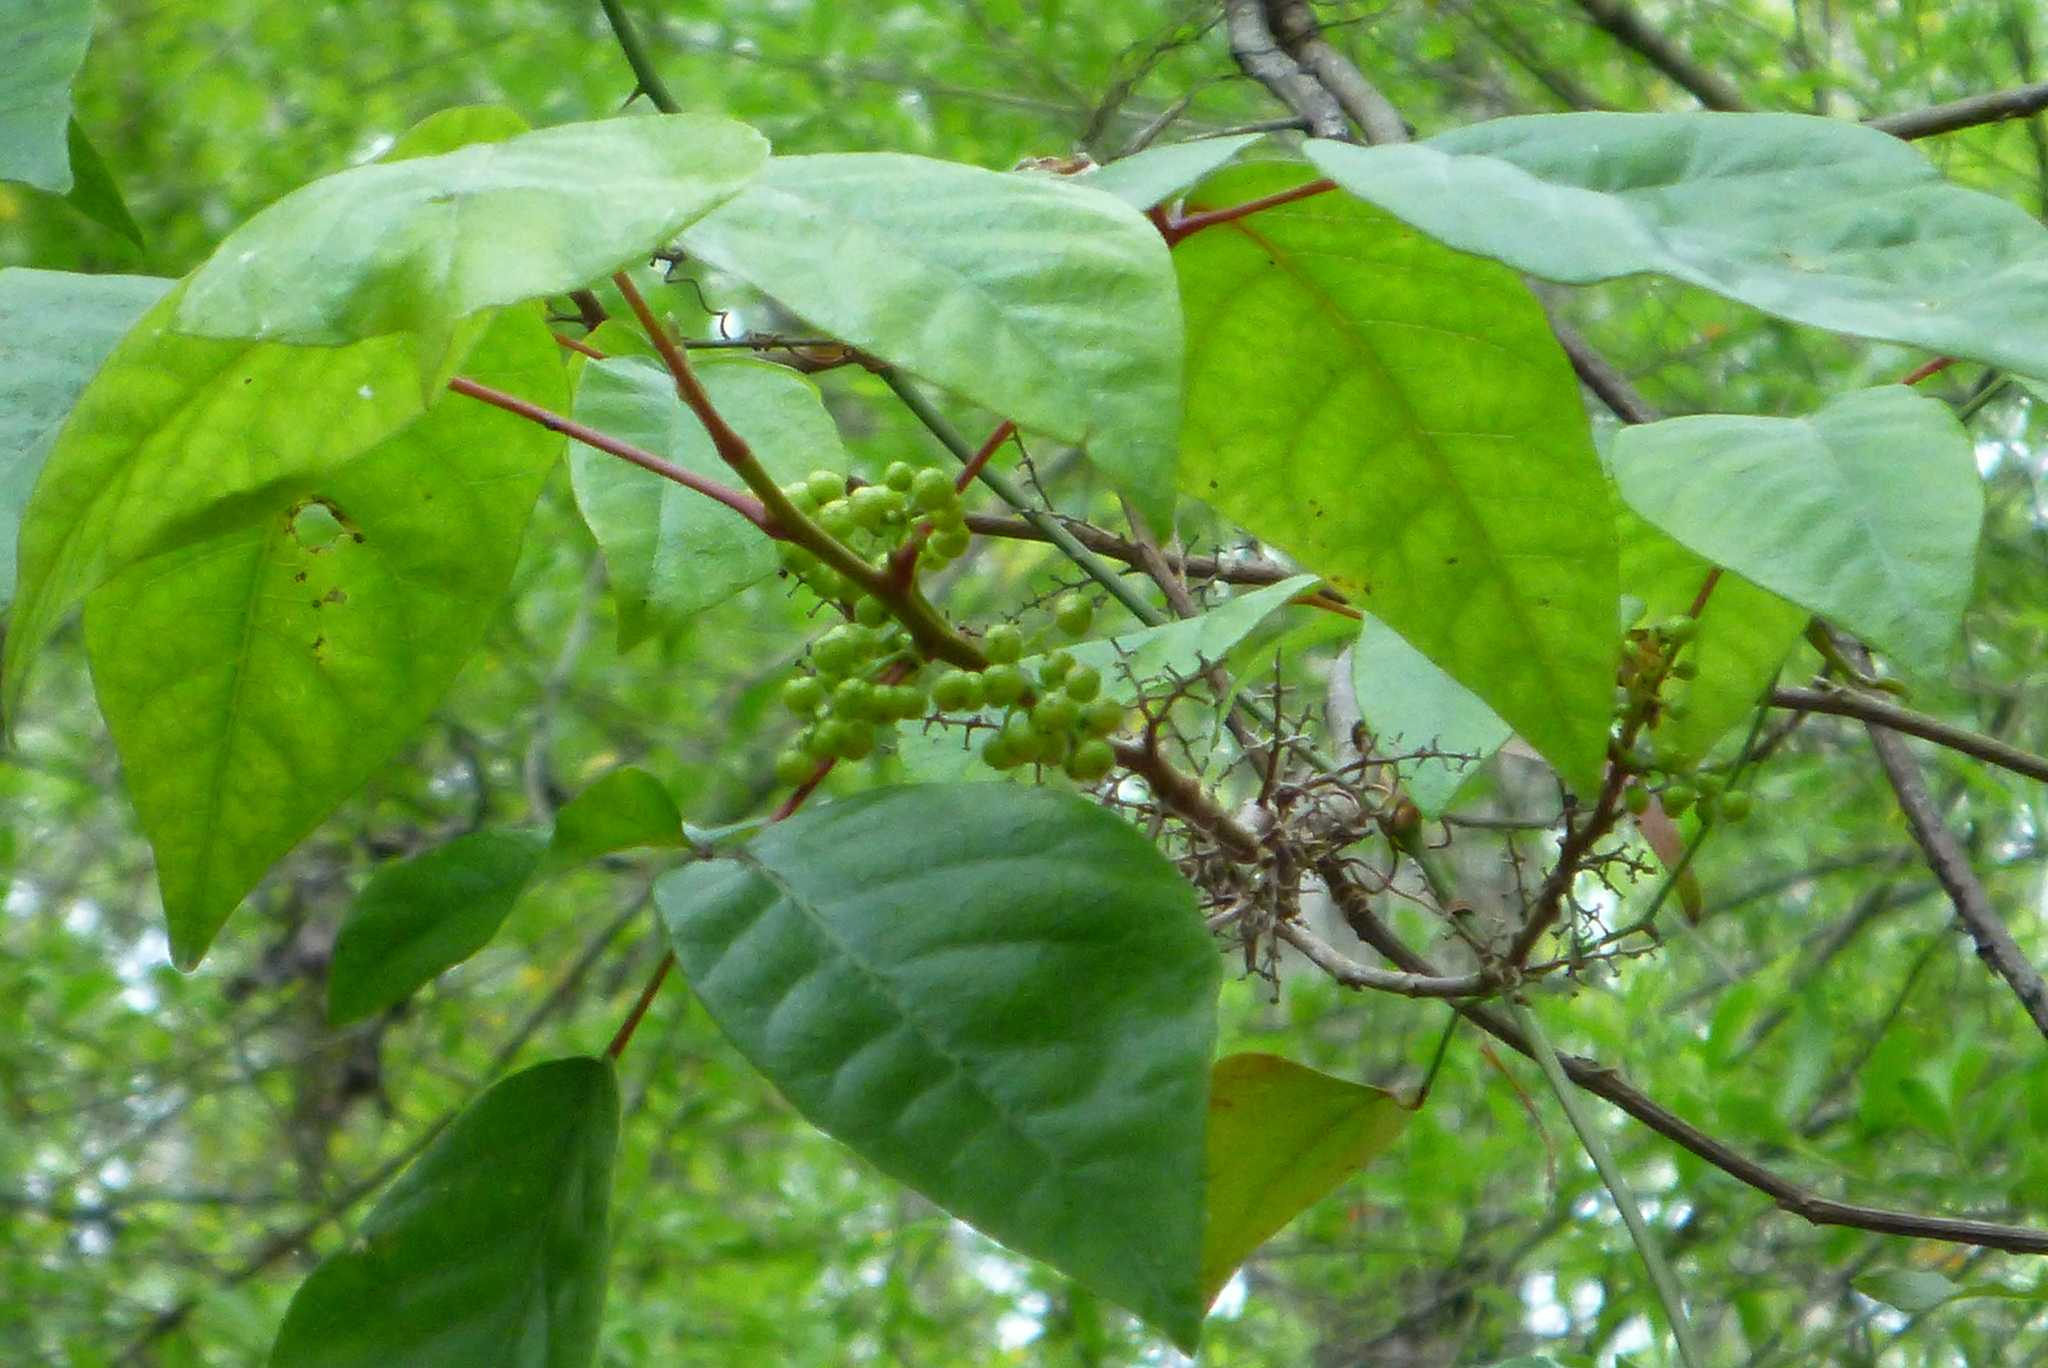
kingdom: Plantae
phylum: Tracheophyta
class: Magnoliopsida
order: Sapindales
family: Anacardiaceae
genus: Toxicodendron
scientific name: Toxicodendron radicans
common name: Poison ivy
